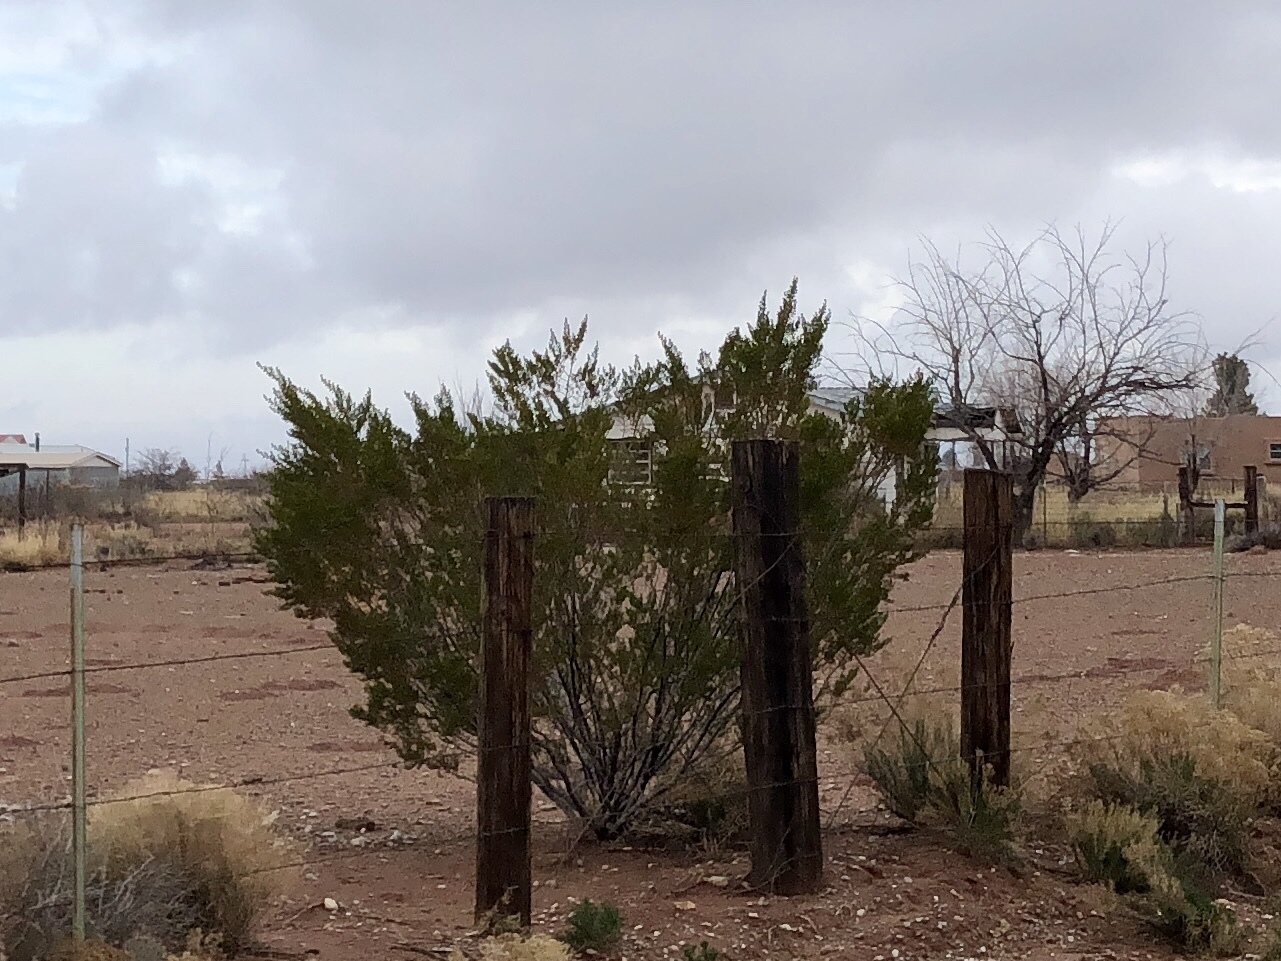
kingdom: Plantae
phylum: Tracheophyta
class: Magnoliopsida
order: Zygophyllales
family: Zygophyllaceae
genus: Larrea
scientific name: Larrea tridentata
